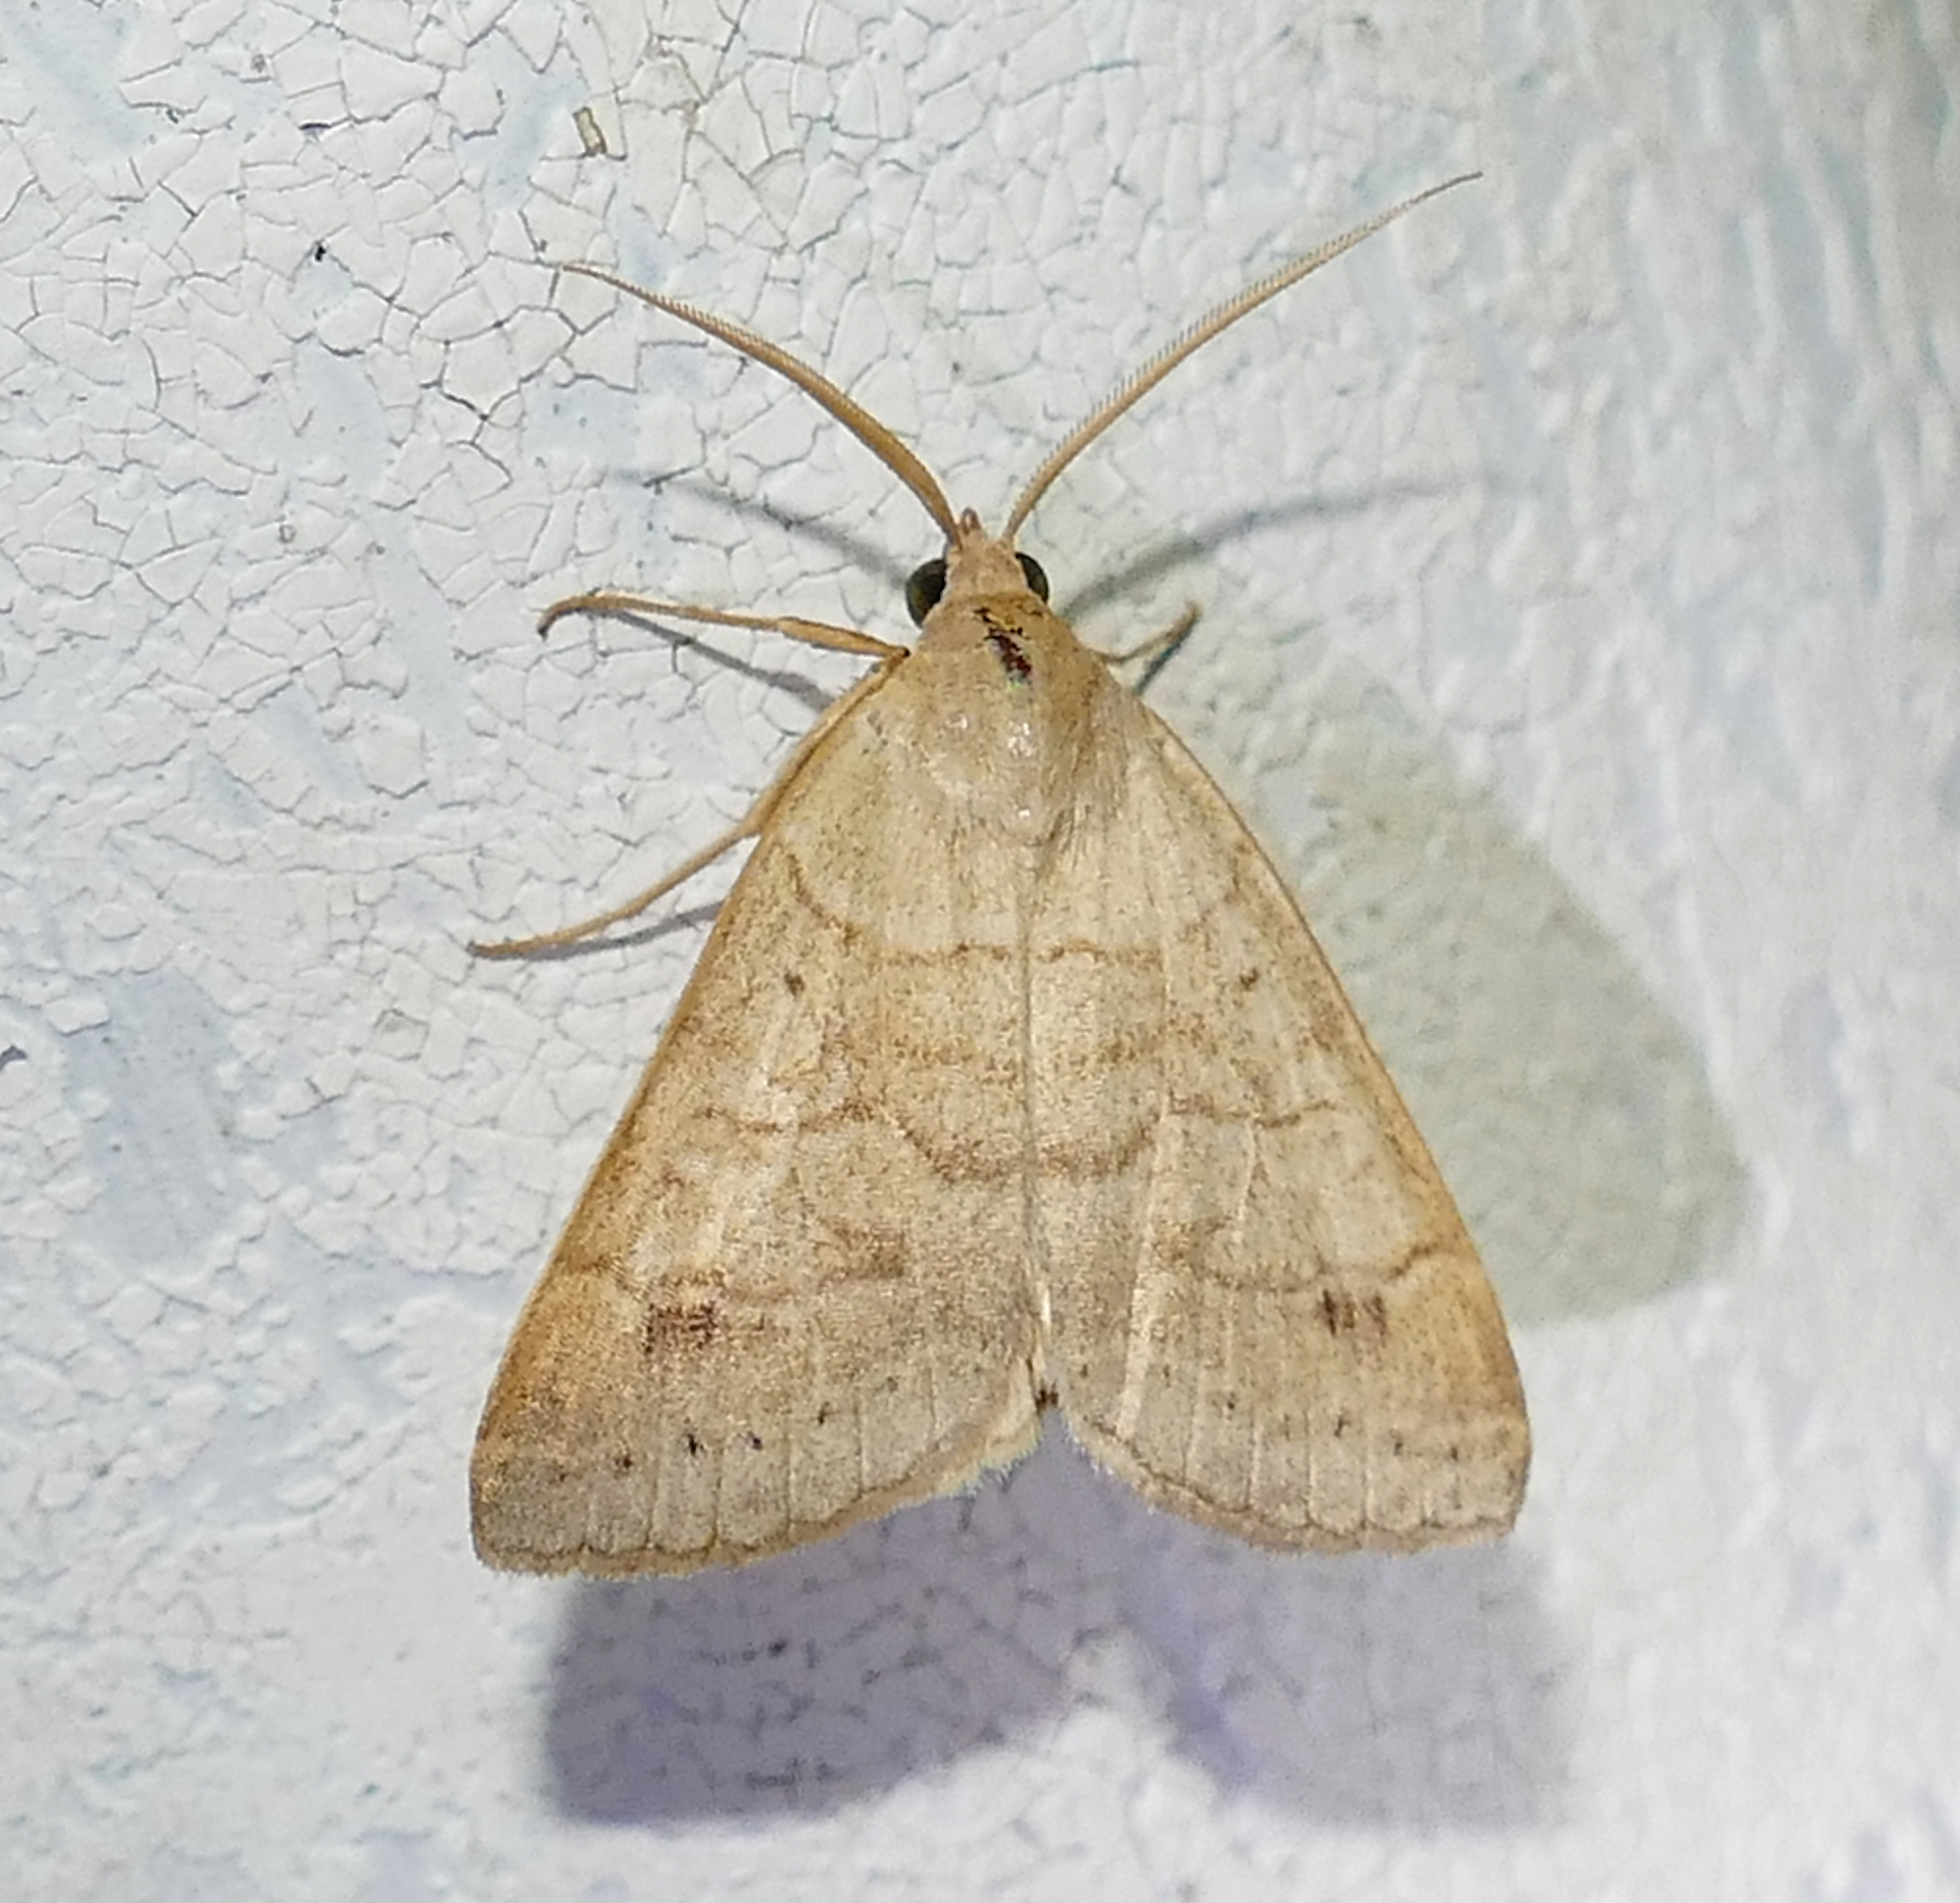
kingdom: Animalia
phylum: Arthropoda
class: Insecta
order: Lepidoptera
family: Erebidae
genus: Caenurgia
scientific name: Caenurgia chloropha
